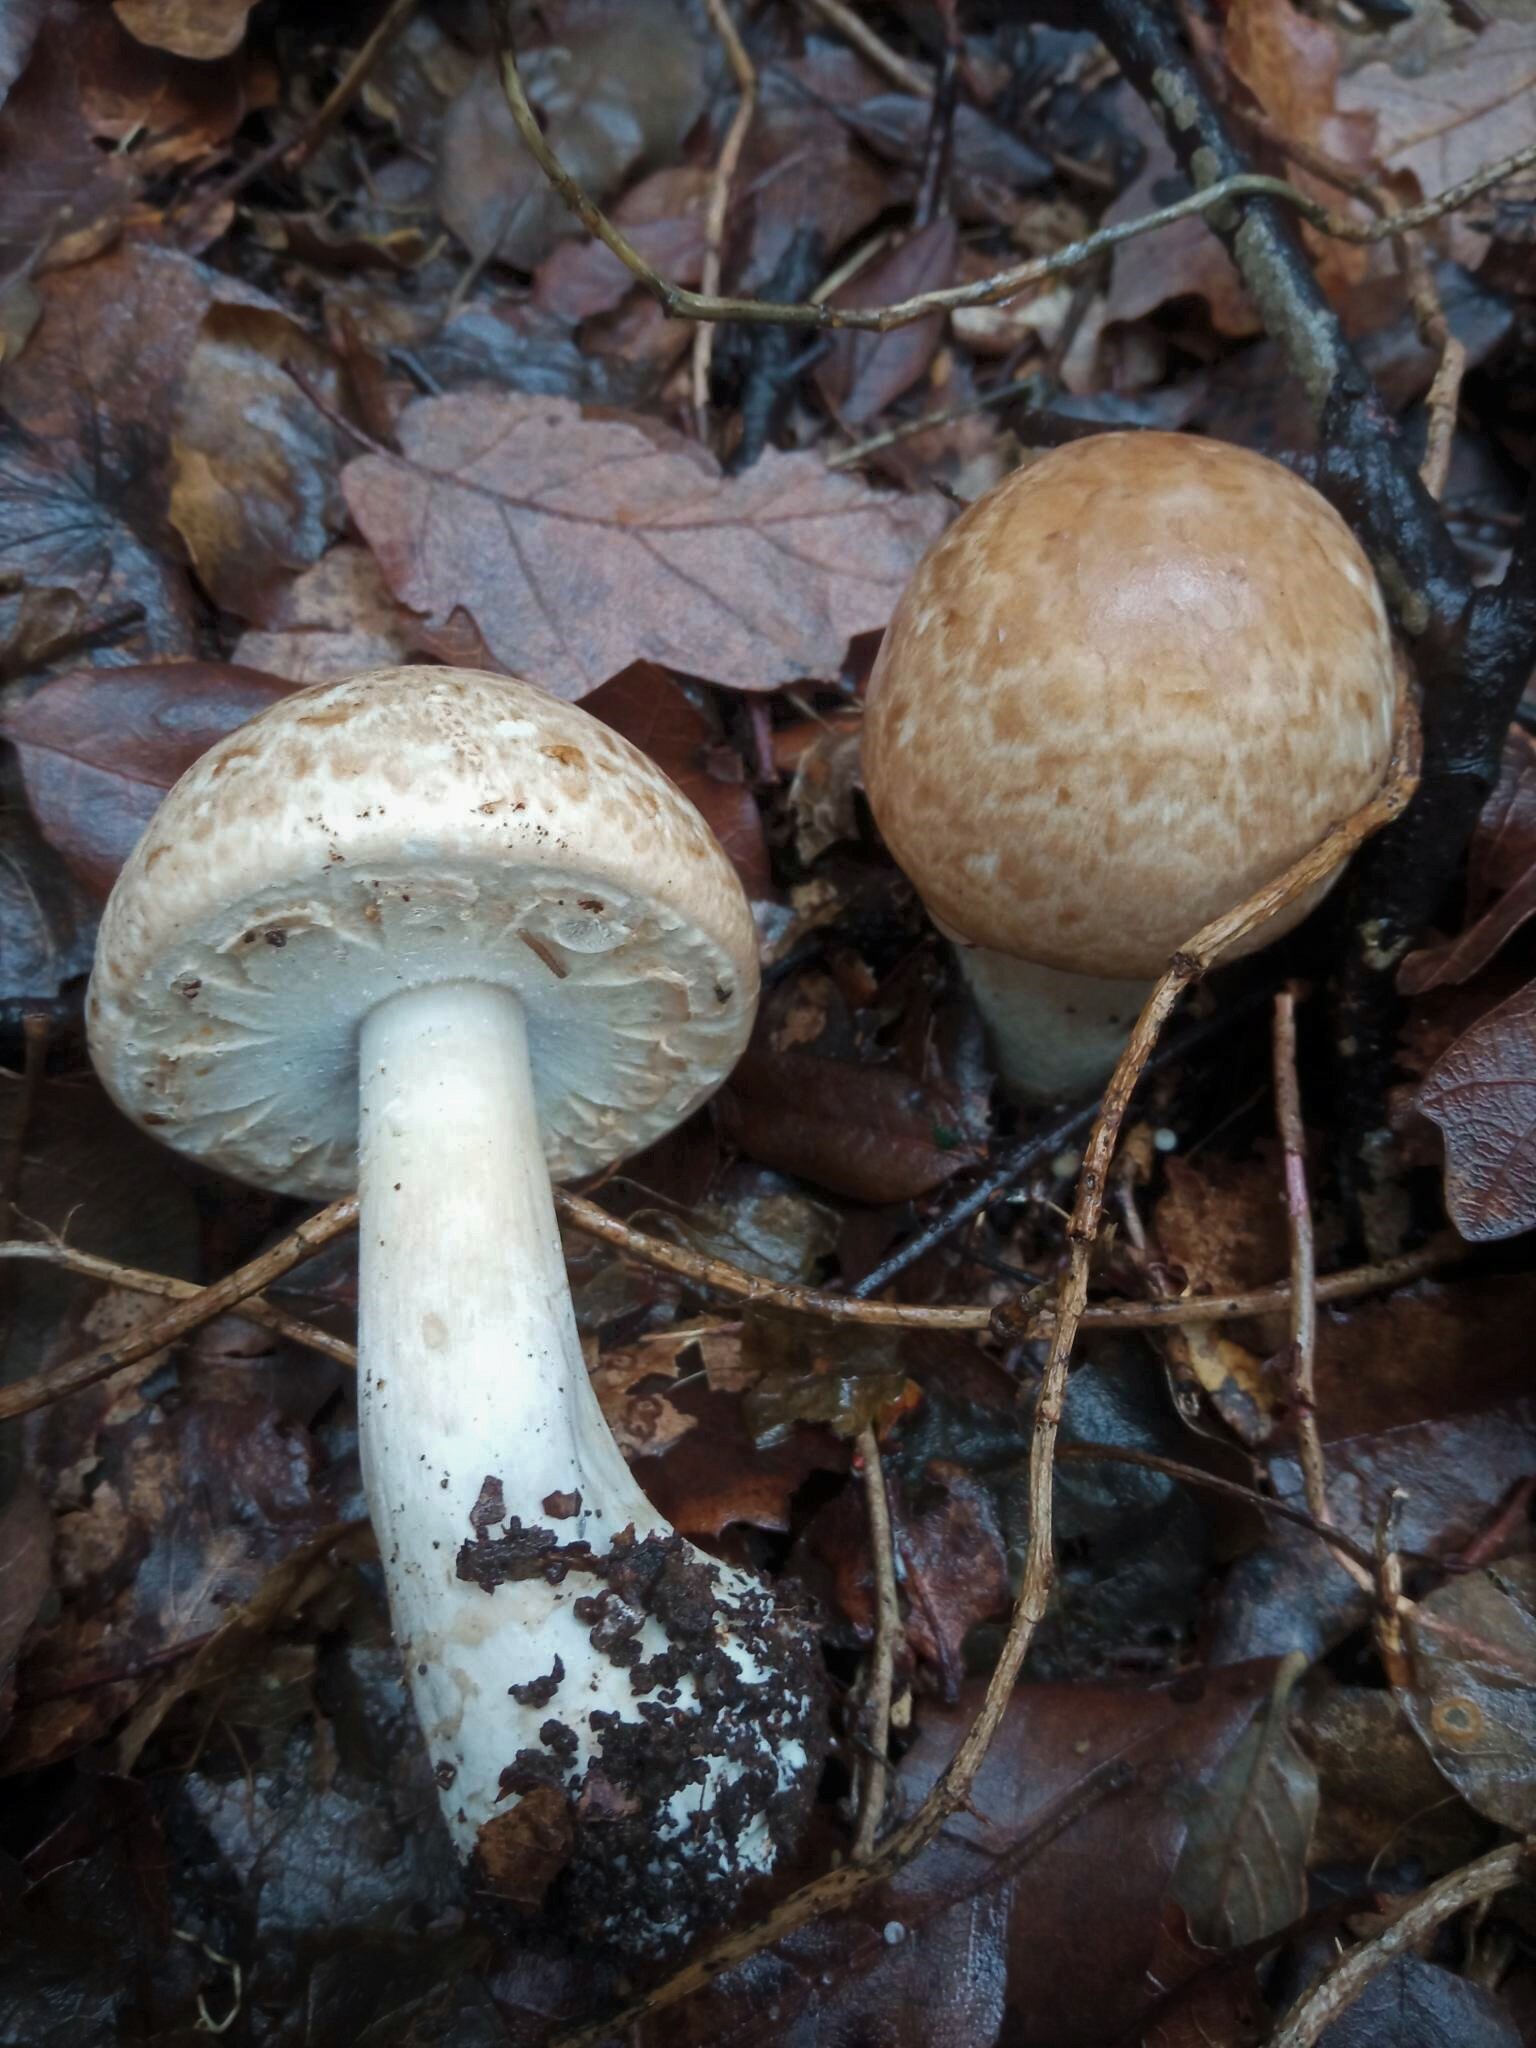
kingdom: Fungi
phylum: Basidiomycota
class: Agaricomycetes
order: Agaricales
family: Agaricaceae
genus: Agaricus
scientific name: Agaricus moelleri
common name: Inky mushroom
